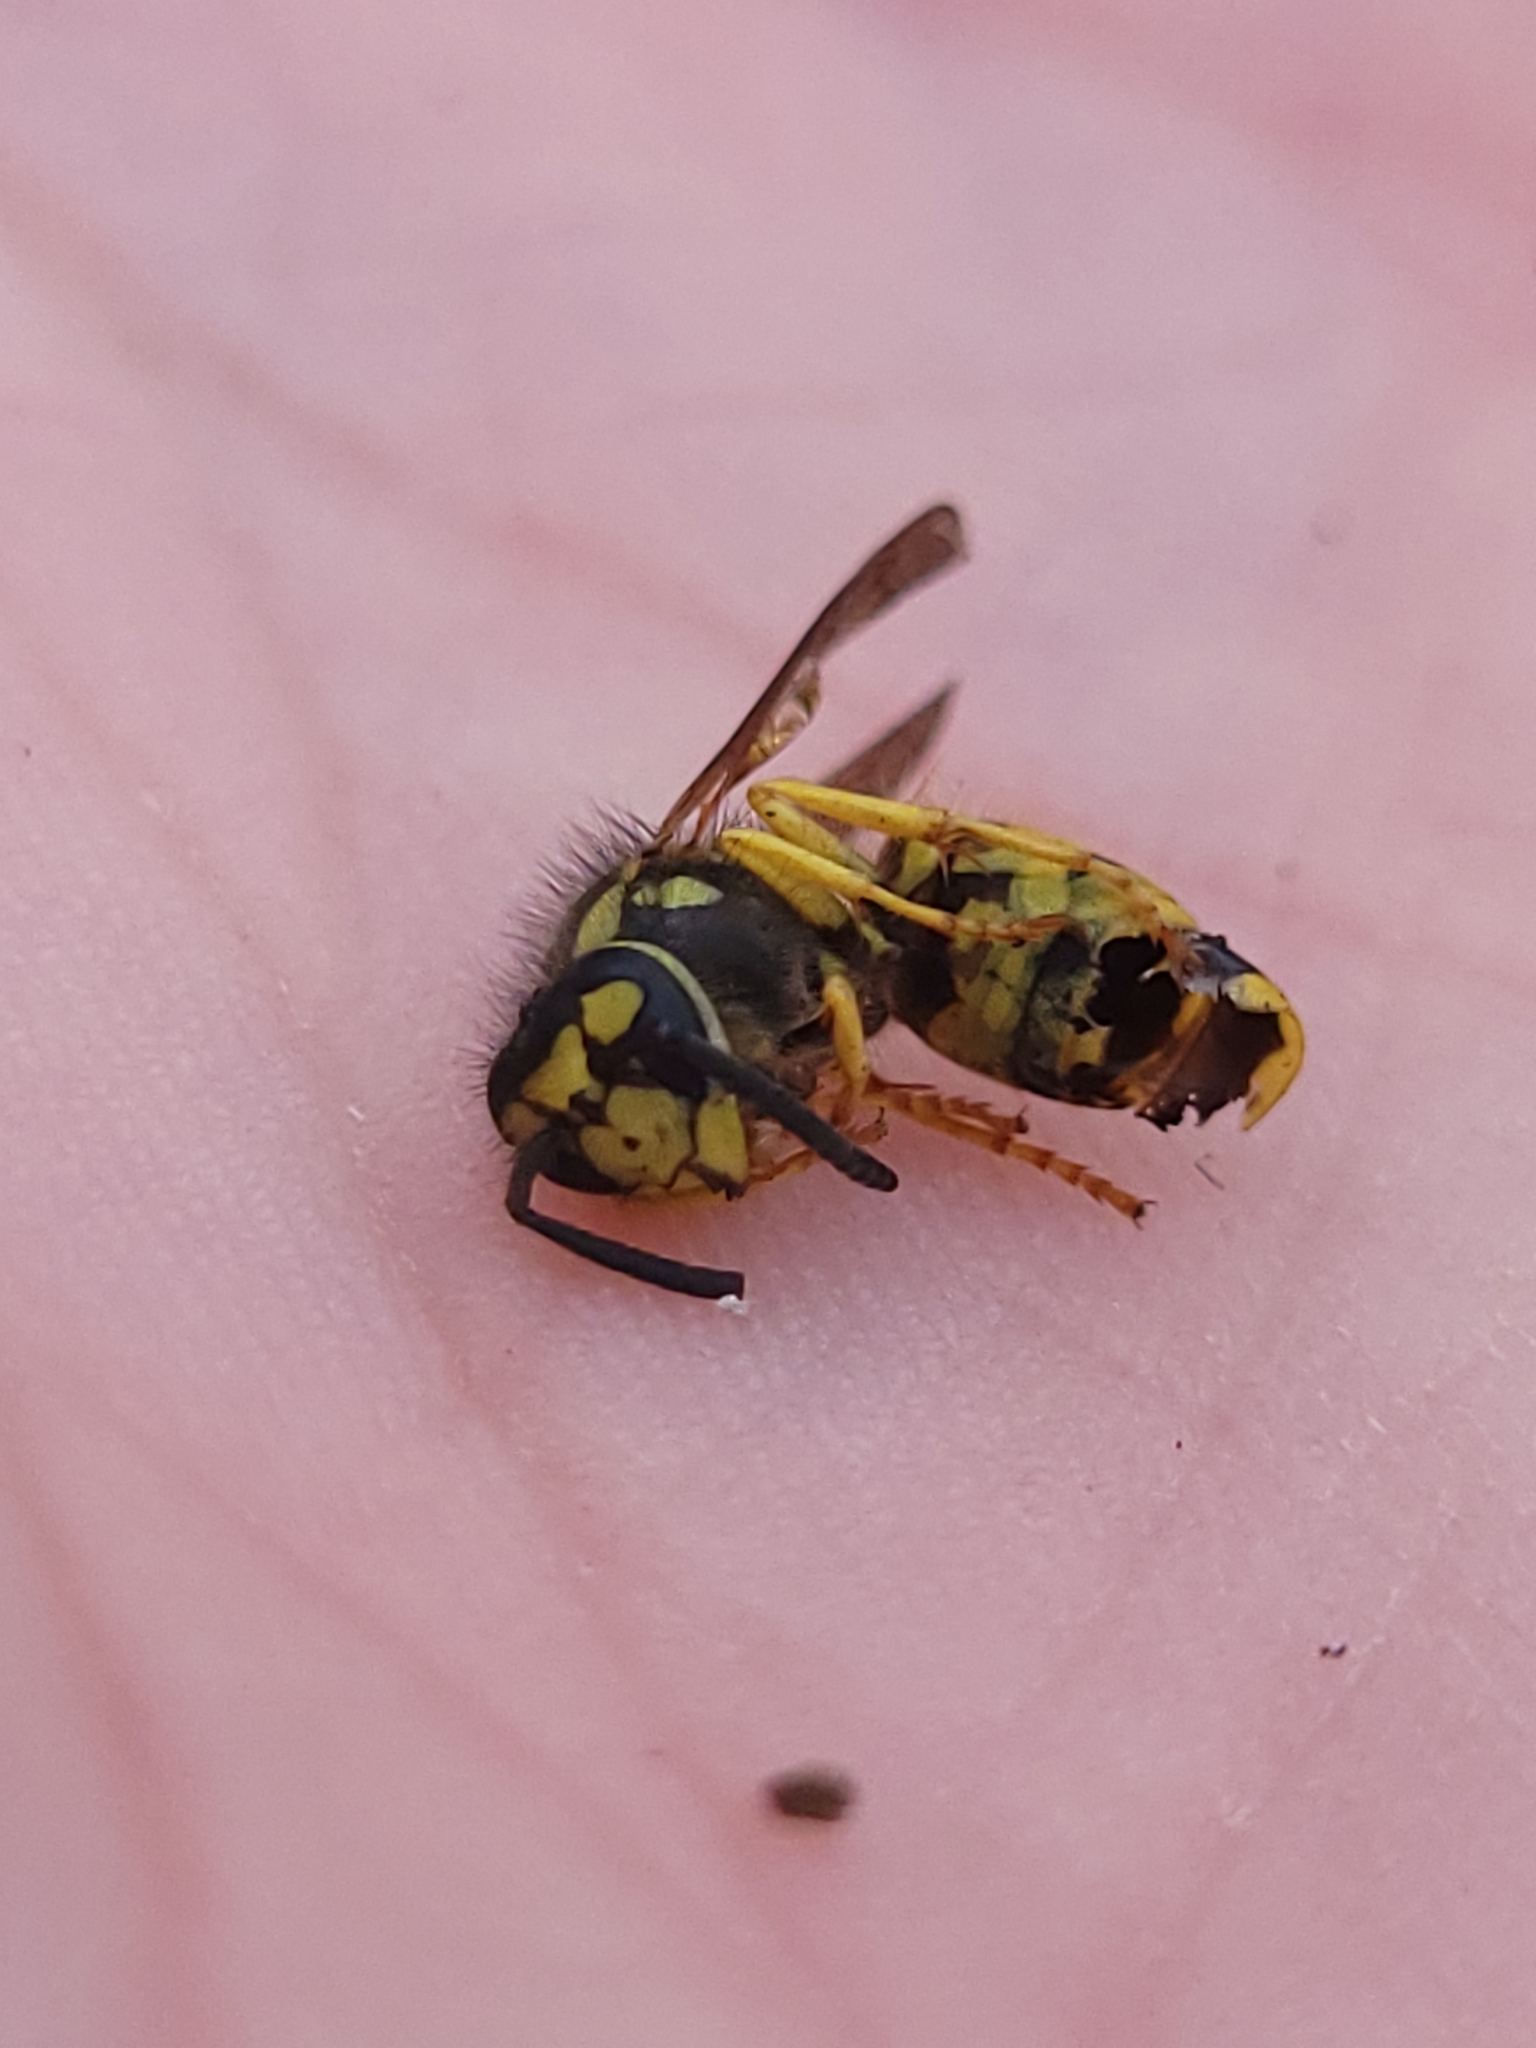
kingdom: Animalia
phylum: Arthropoda
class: Insecta
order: Hymenoptera
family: Vespidae
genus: Vespula
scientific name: Vespula maculifrons
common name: Eastern yellowjacket
